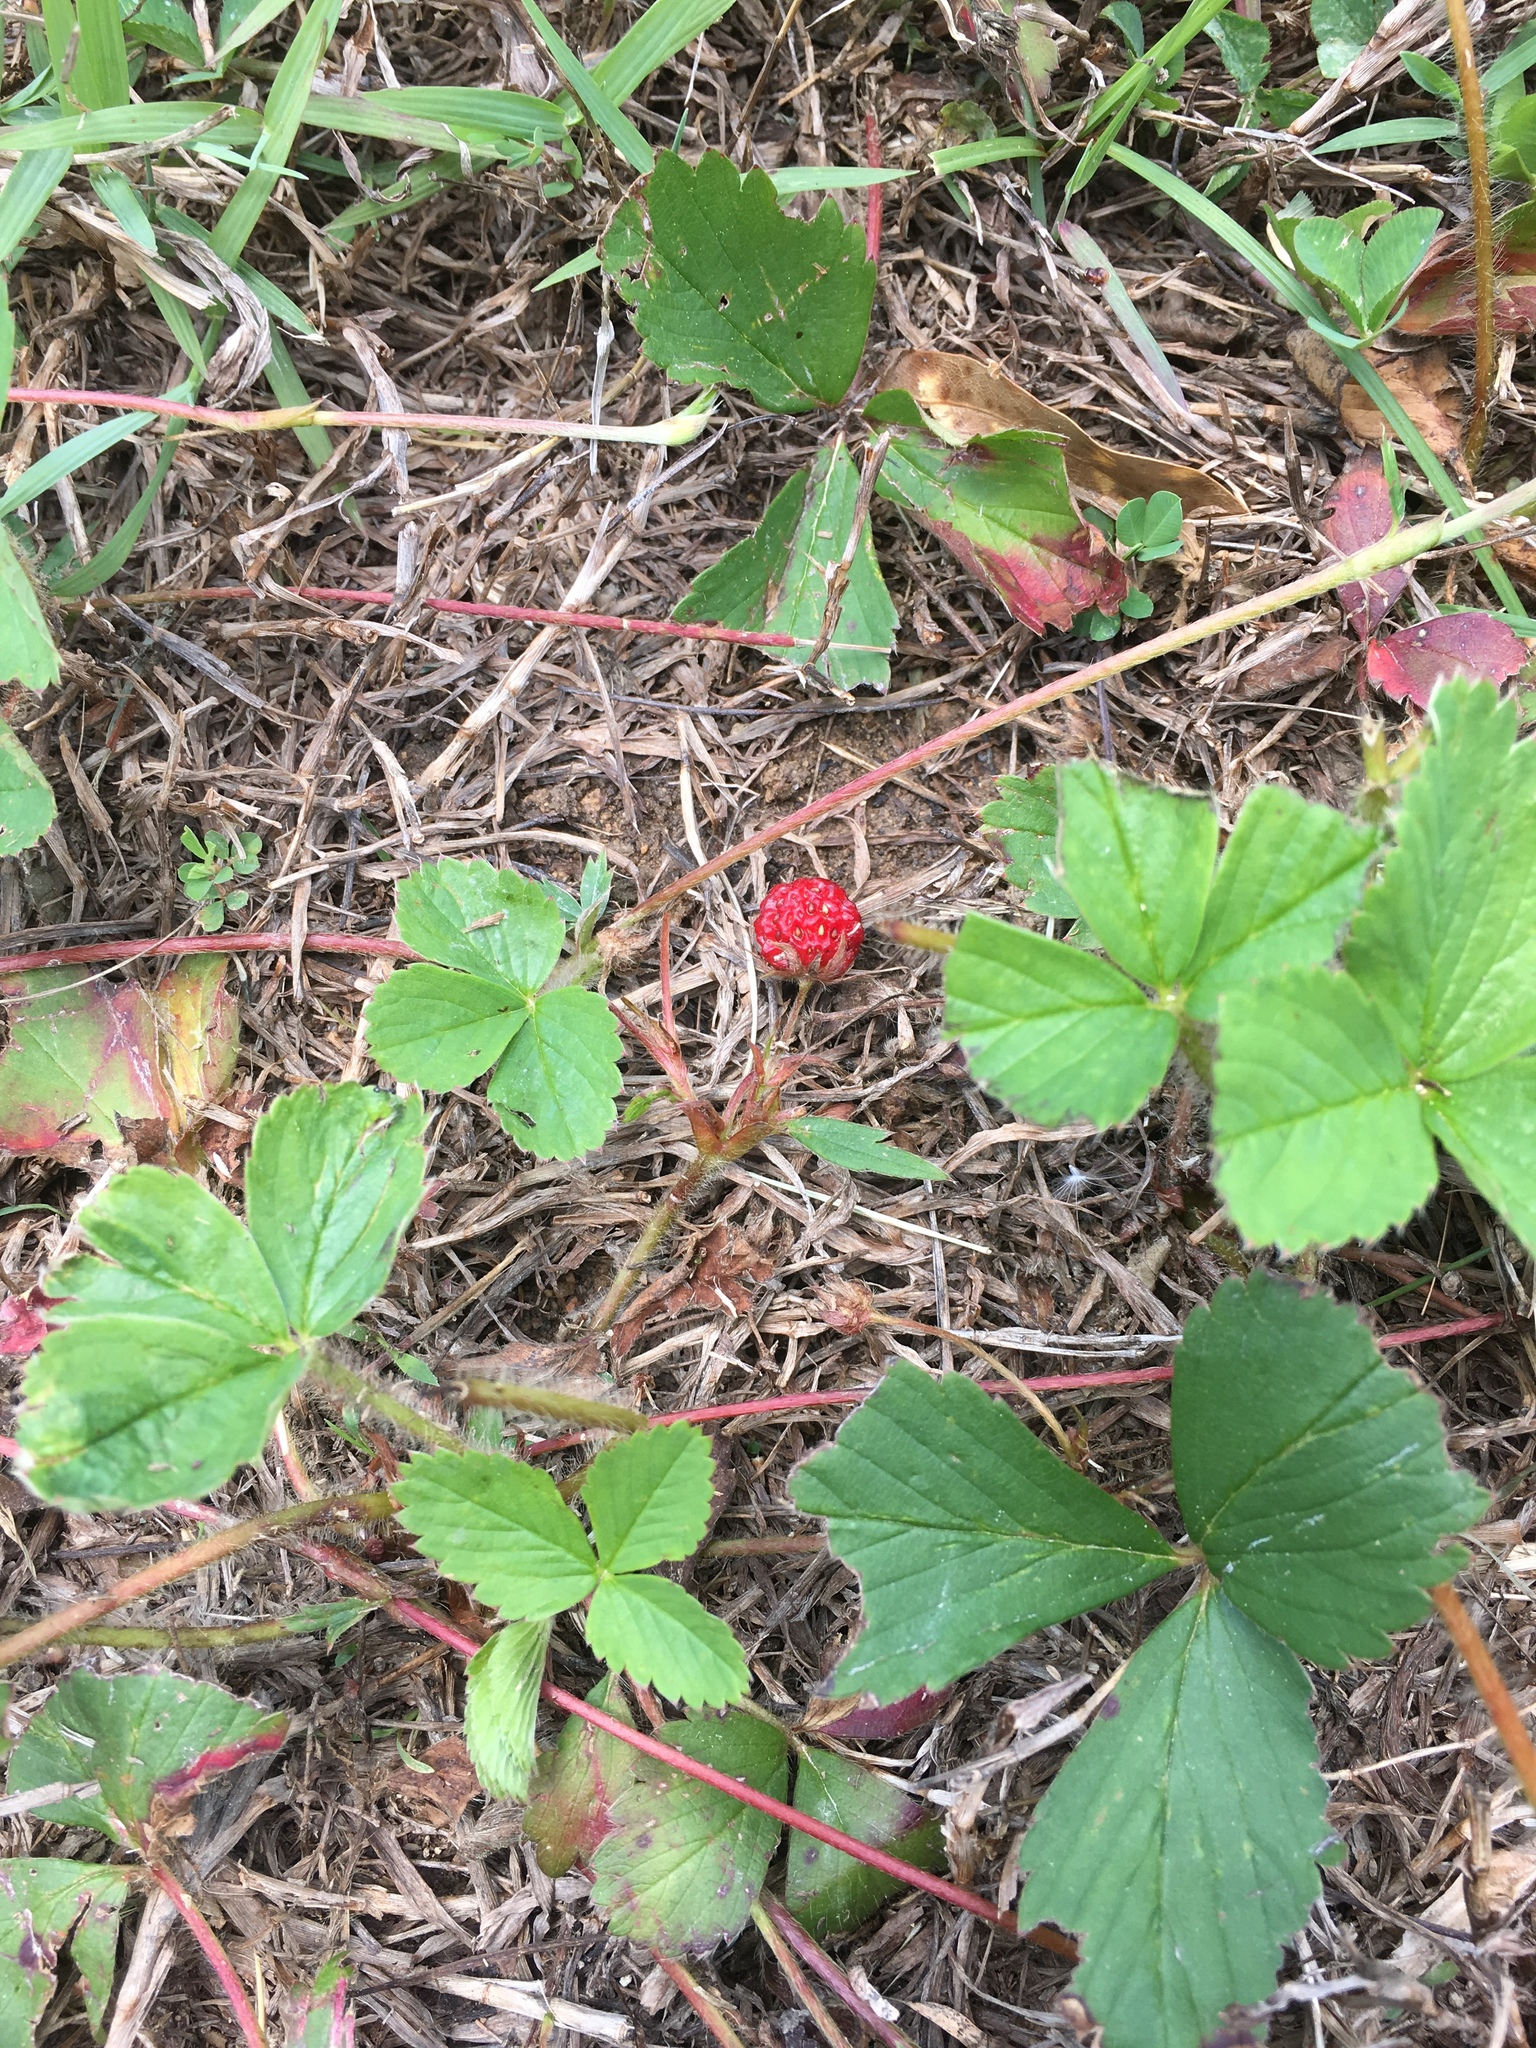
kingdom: Plantae
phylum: Tracheophyta
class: Magnoliopsida
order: Rosales
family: Rosaceae
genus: Fragaria
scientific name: Fragaria virginiana
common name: Thickleaved wild strawberry
